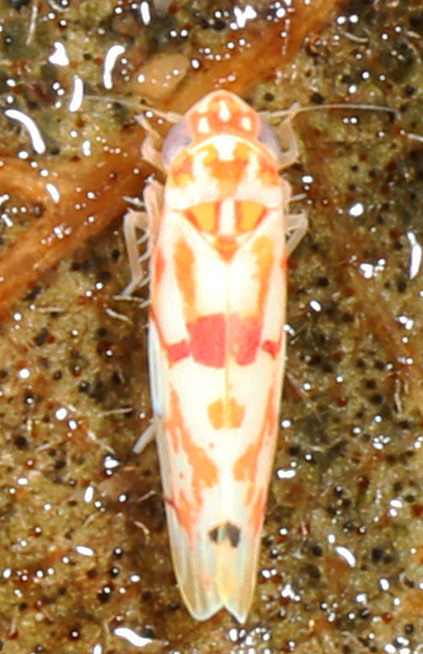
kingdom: Animalia
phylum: Arthropoda
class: Insecta
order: Hemiptera
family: Cicadellidae
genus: Eratoneura
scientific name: Eratoneura micheneri
